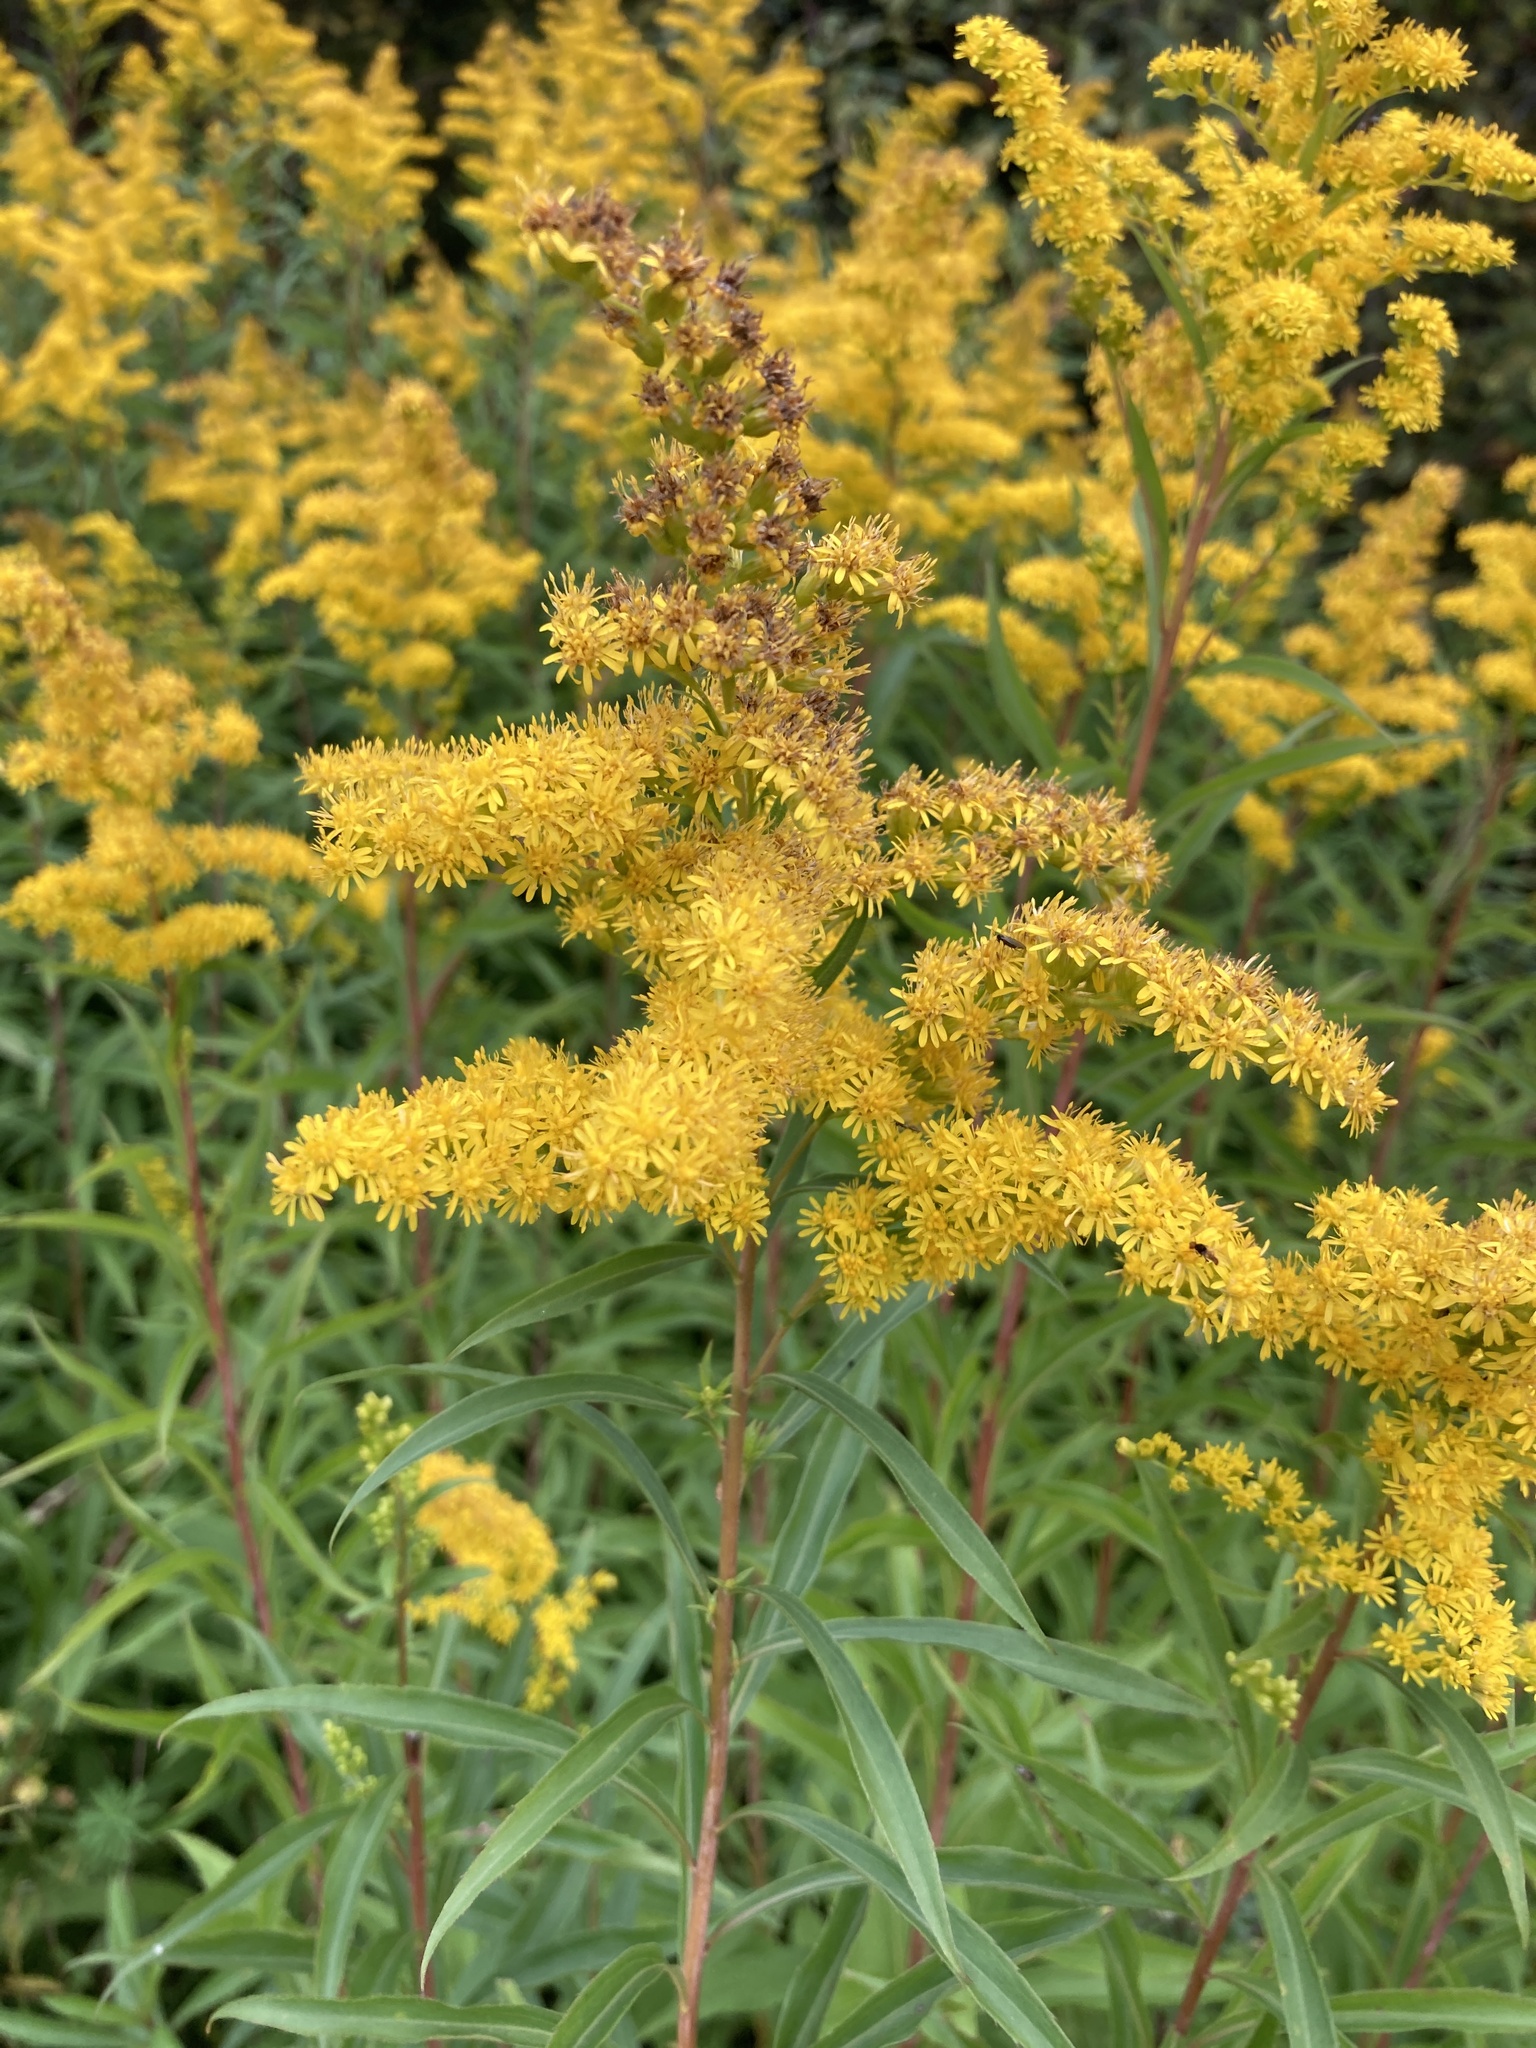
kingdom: Plantae
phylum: Tracheophyta
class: Magnoliopsida
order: Asterales
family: Asteraceae
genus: Solidago
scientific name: Solidago gigantea
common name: Giant goldenrod
